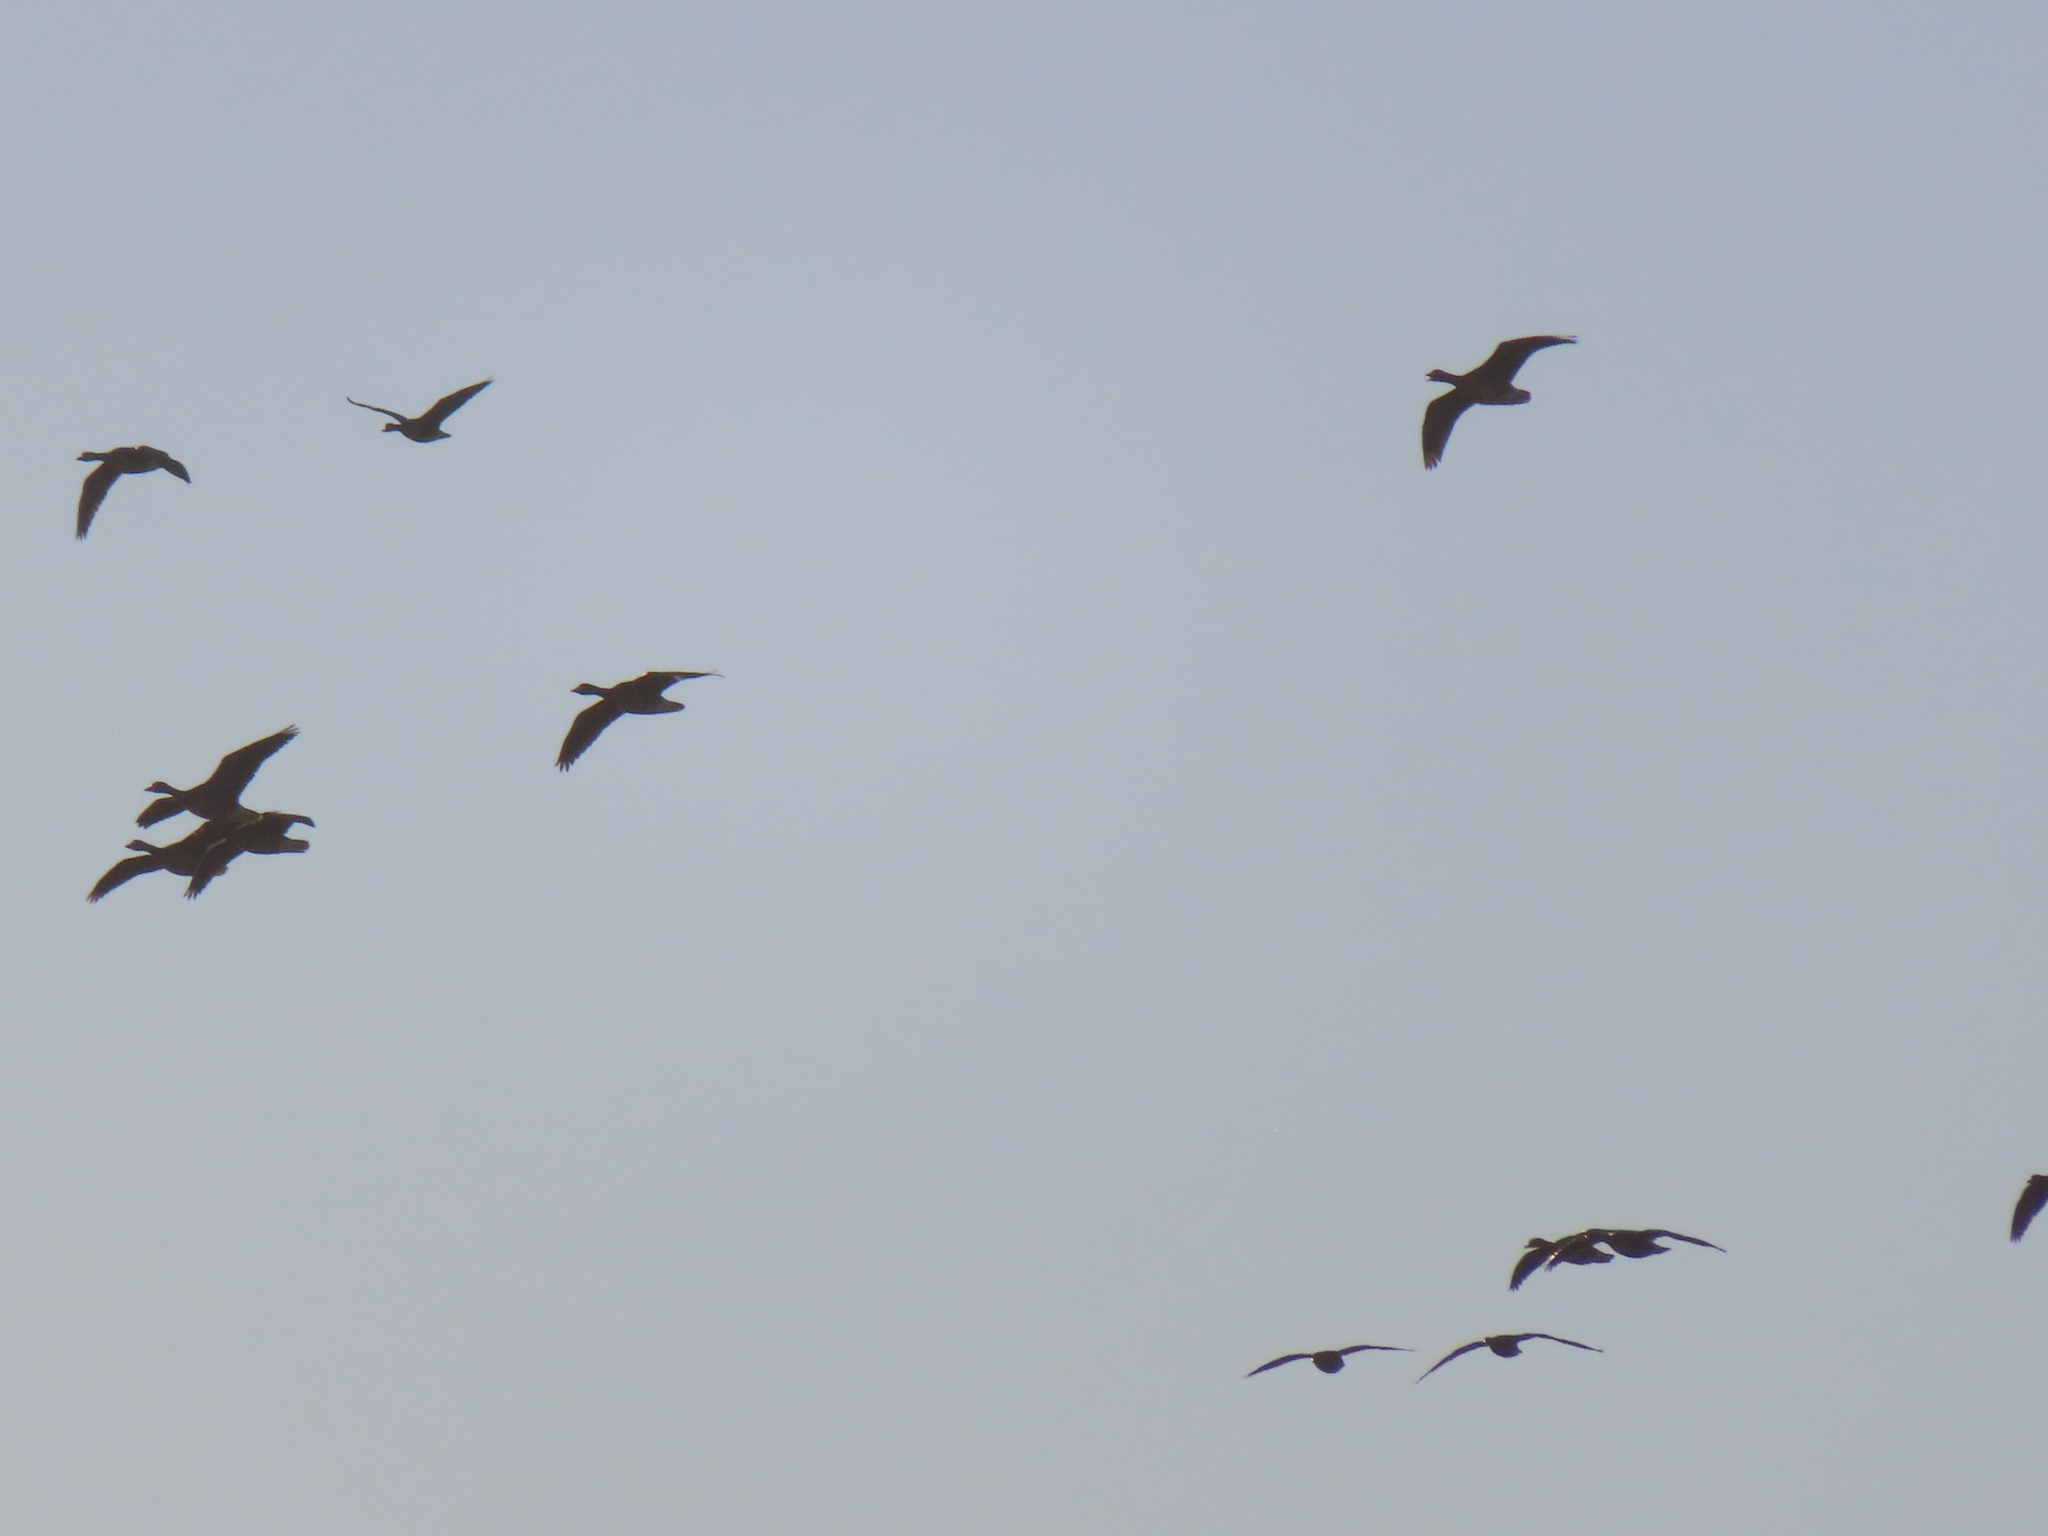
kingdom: Animalia
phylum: Chordata
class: Aves
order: Anseriformes
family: Anatidae
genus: Anser
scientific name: Anser caerulescens
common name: Snow goose
